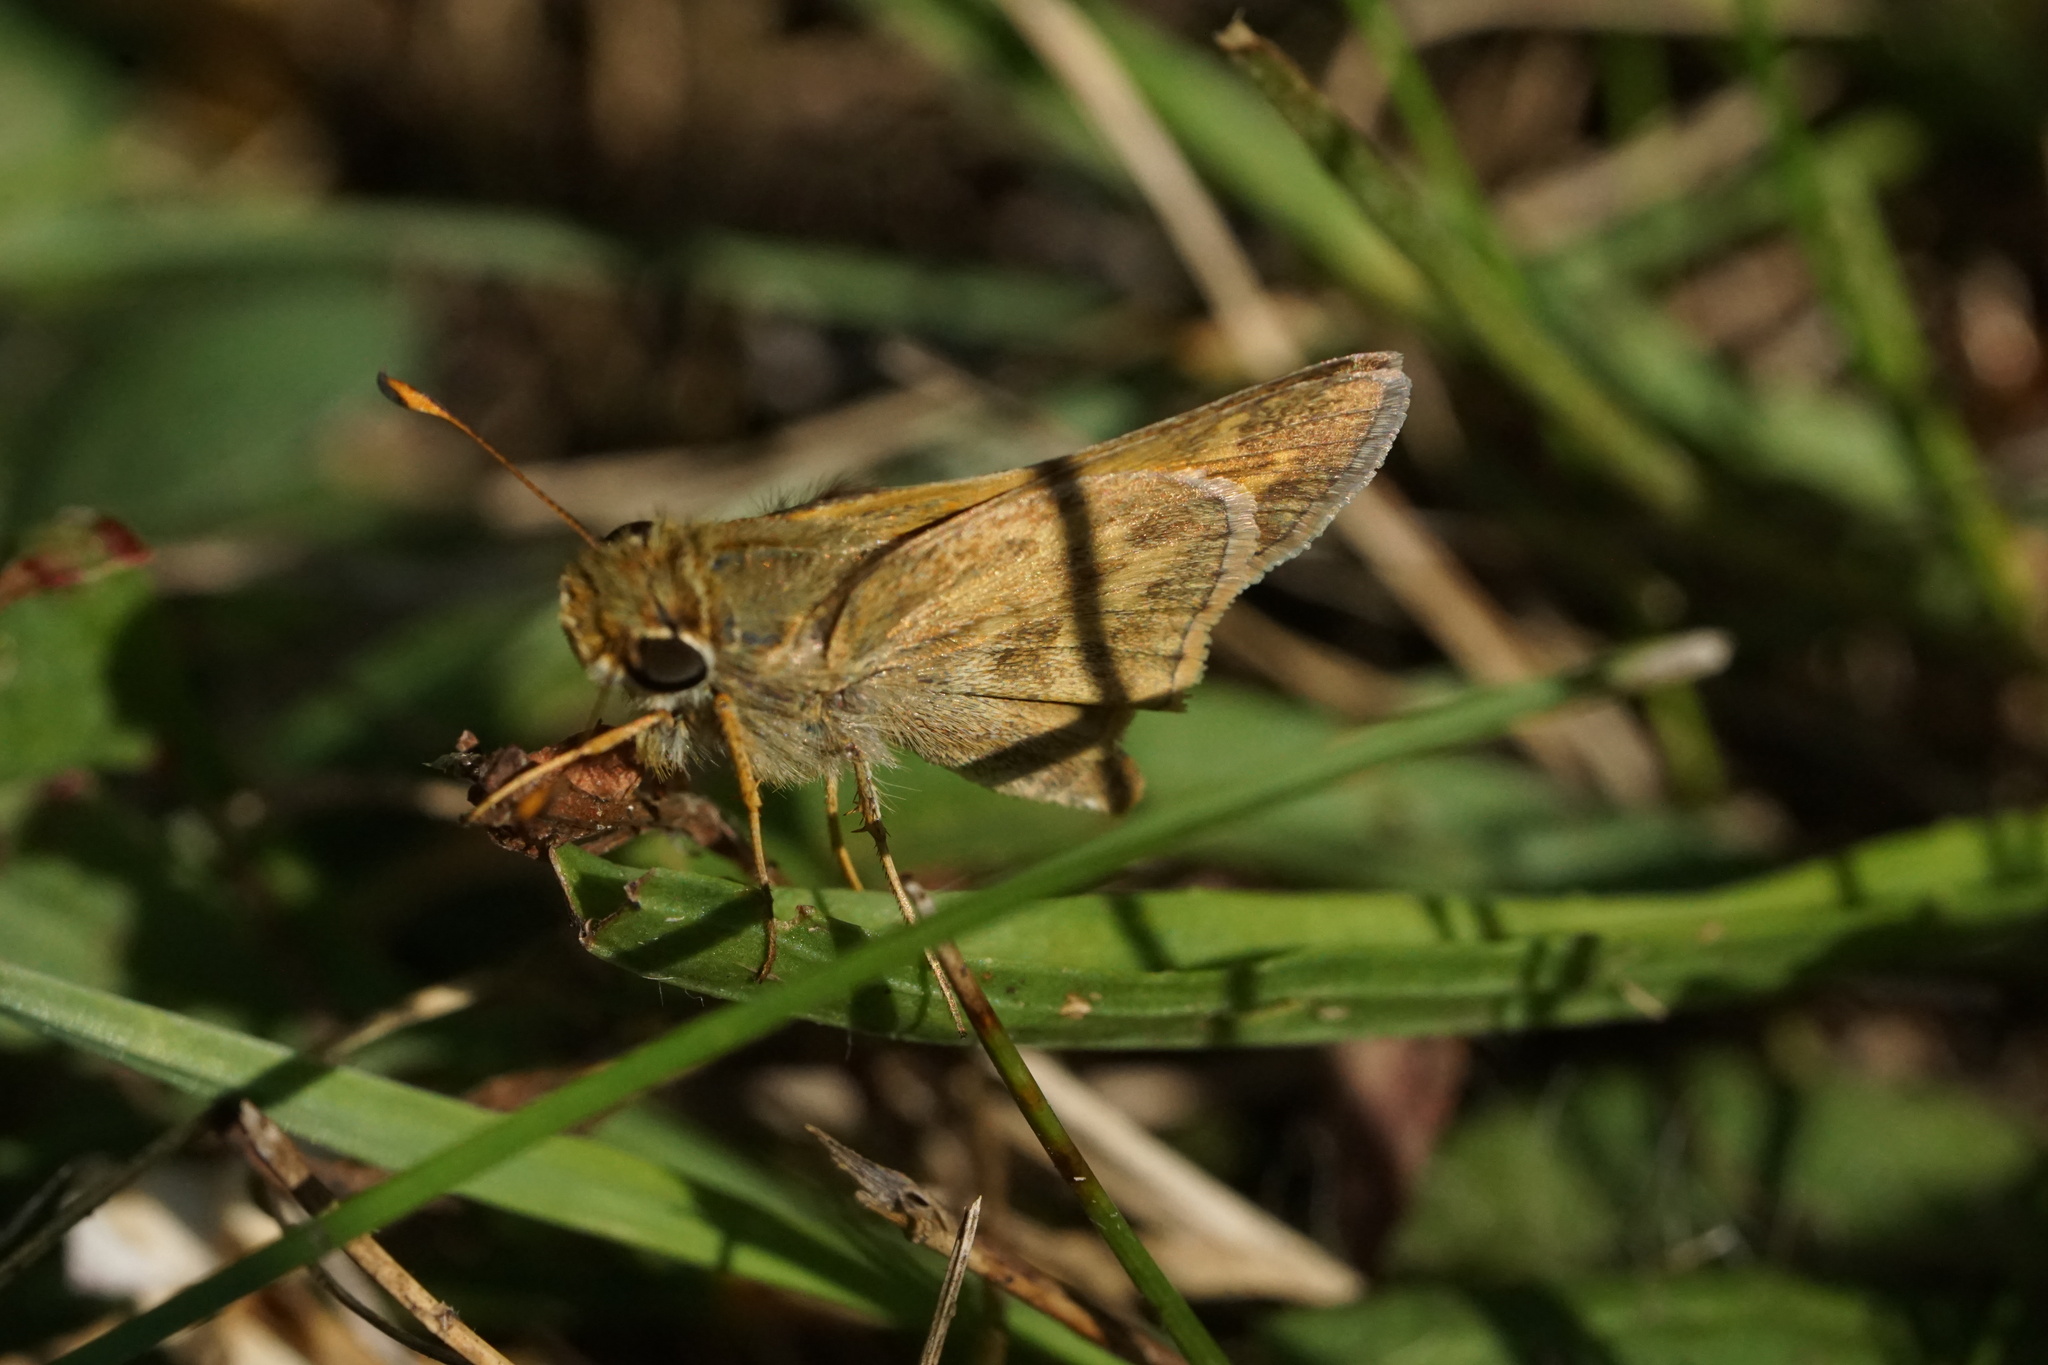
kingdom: Animalia
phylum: Arthropoda
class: Insecta
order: Lepidoptera
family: Hesperiidae
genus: Atalopedes
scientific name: Atalopedes
